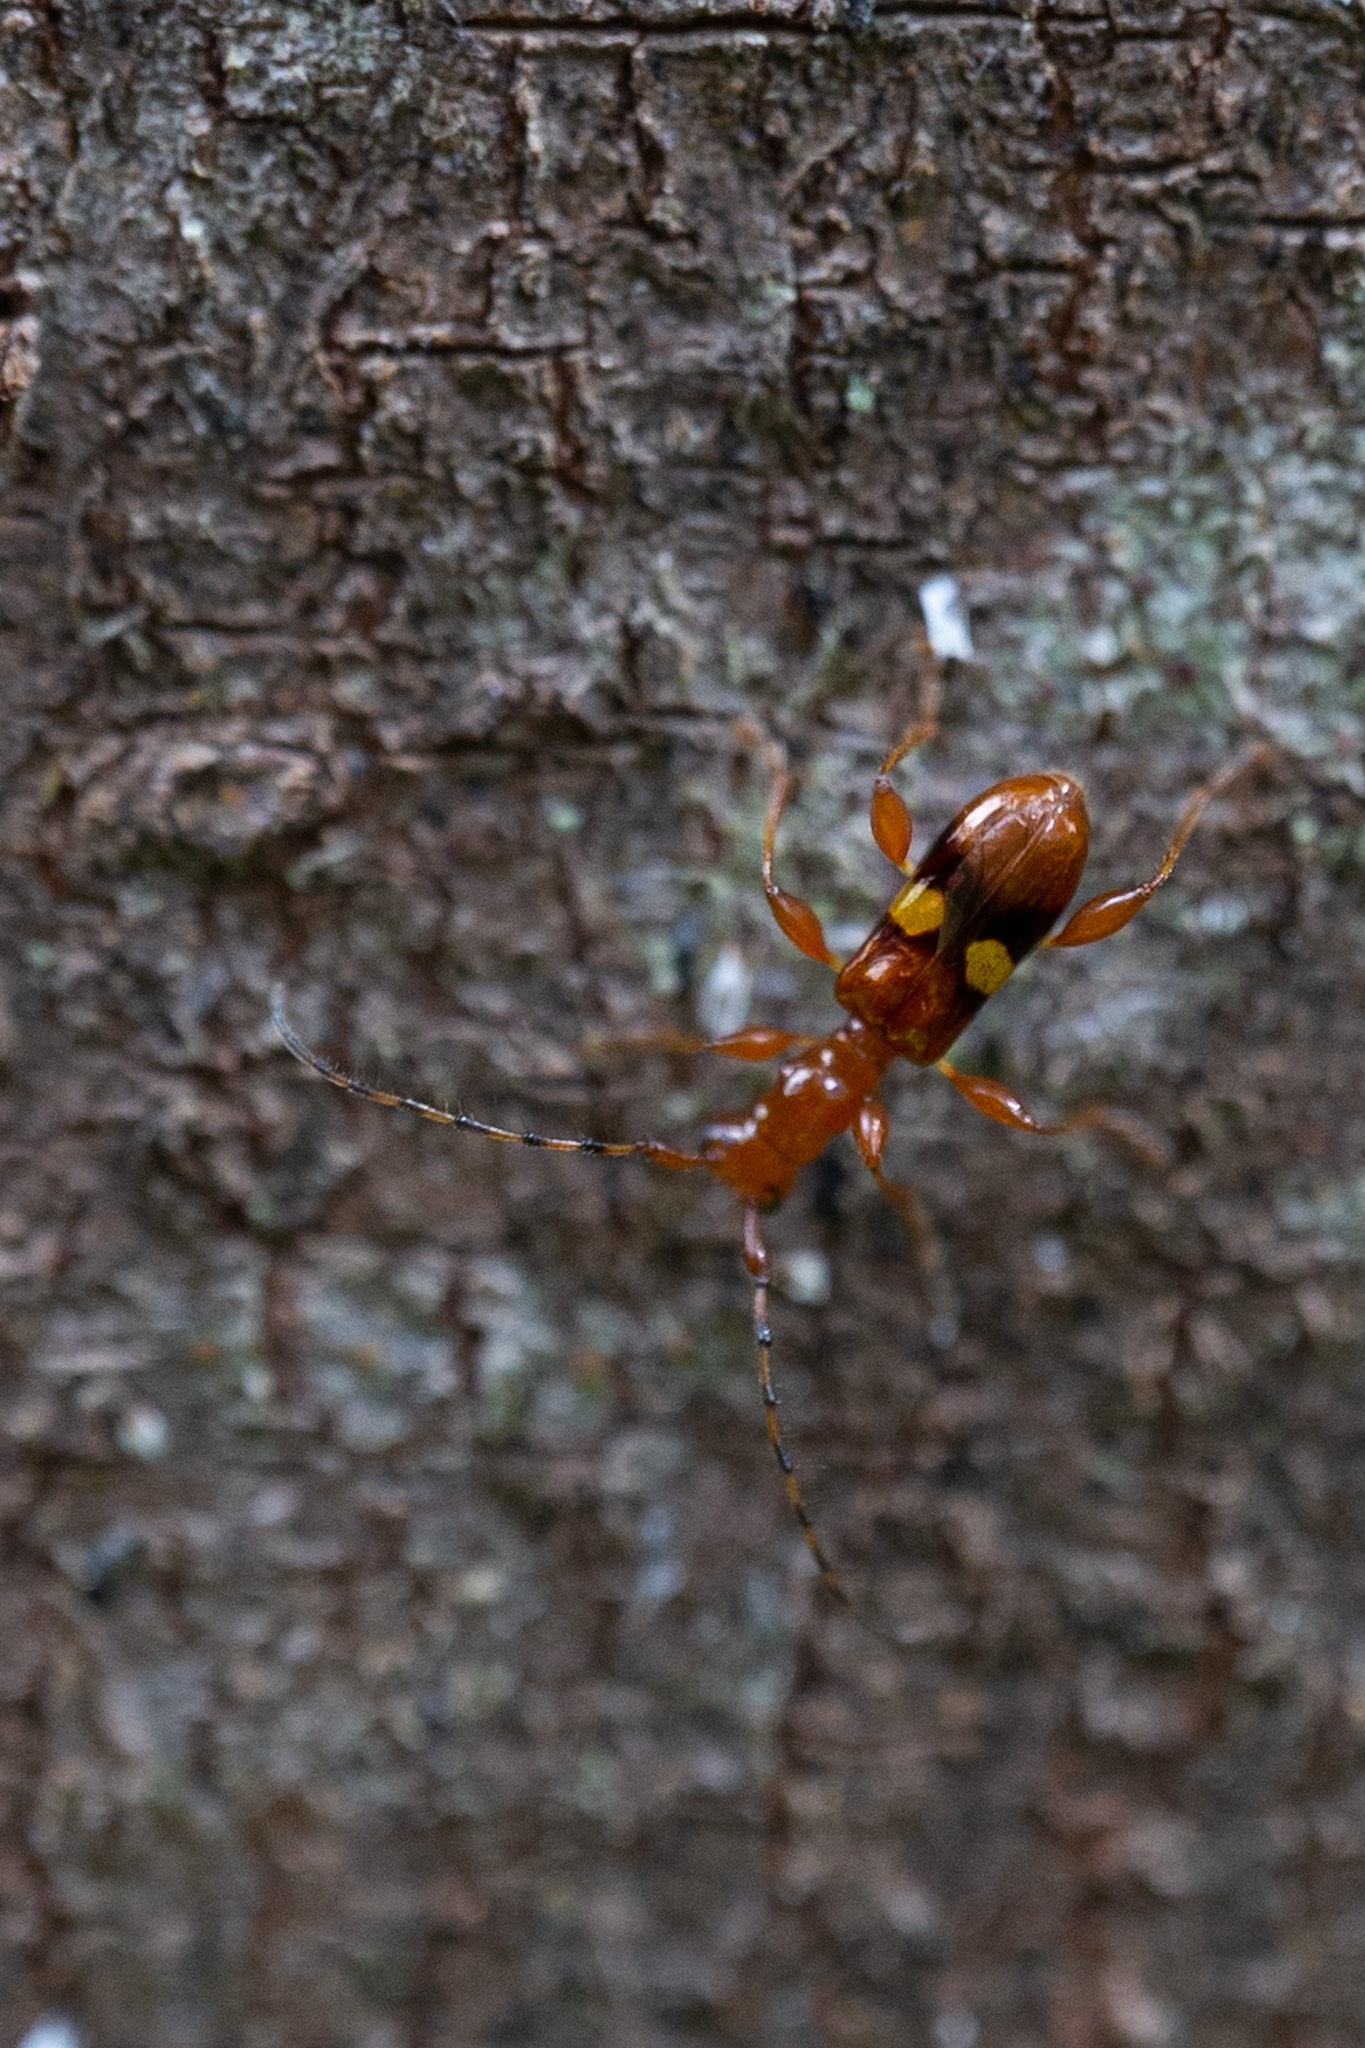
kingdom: Animalia
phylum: Arthropoda
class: Insecta
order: Coleoptera
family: Cerambycidae
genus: Zorion
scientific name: Zorion australe
